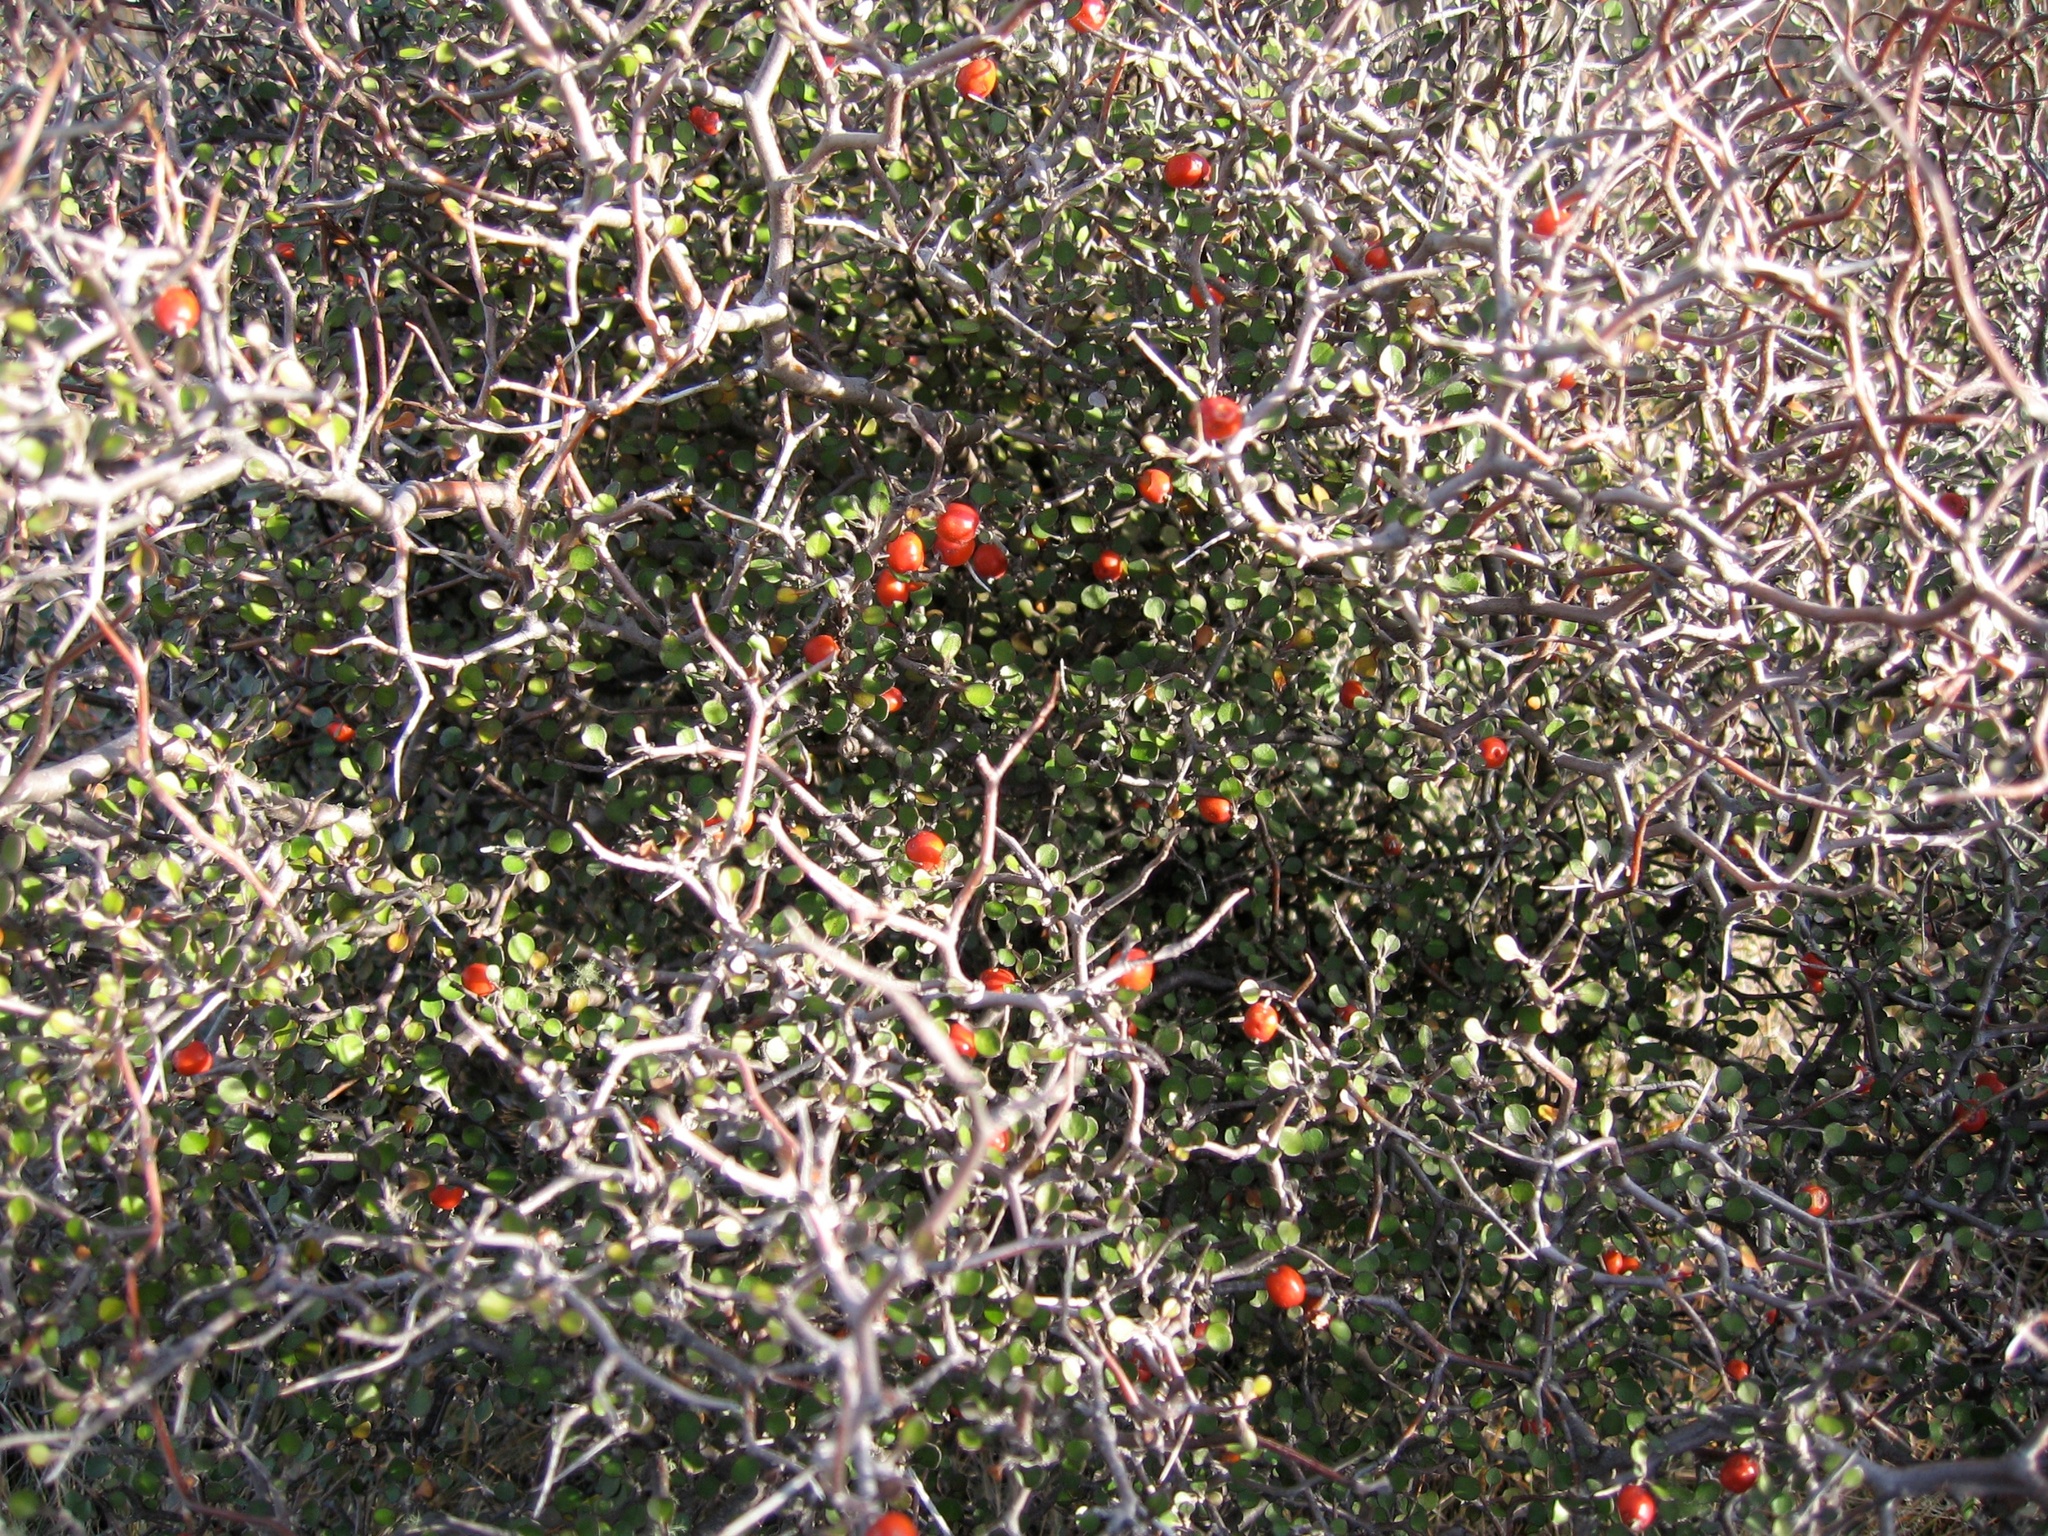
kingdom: Plantae
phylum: Tracheophyta
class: Magnoliopsida
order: Asterales
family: Argophyllaceae
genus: Corokia
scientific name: Corokia cotoneaster
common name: Wire nettingbush
